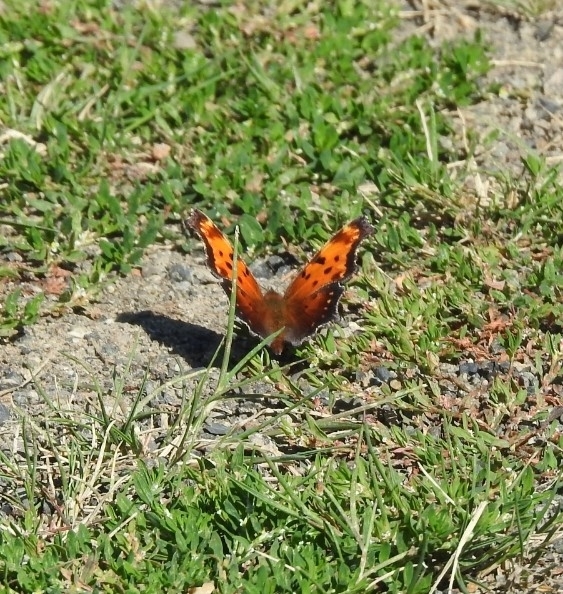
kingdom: Animalia
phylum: Arthropoda
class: Insecta
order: Lepidoptera
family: Nymphalidae
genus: Polygonia
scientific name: Polygonia progne
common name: Gray comma
